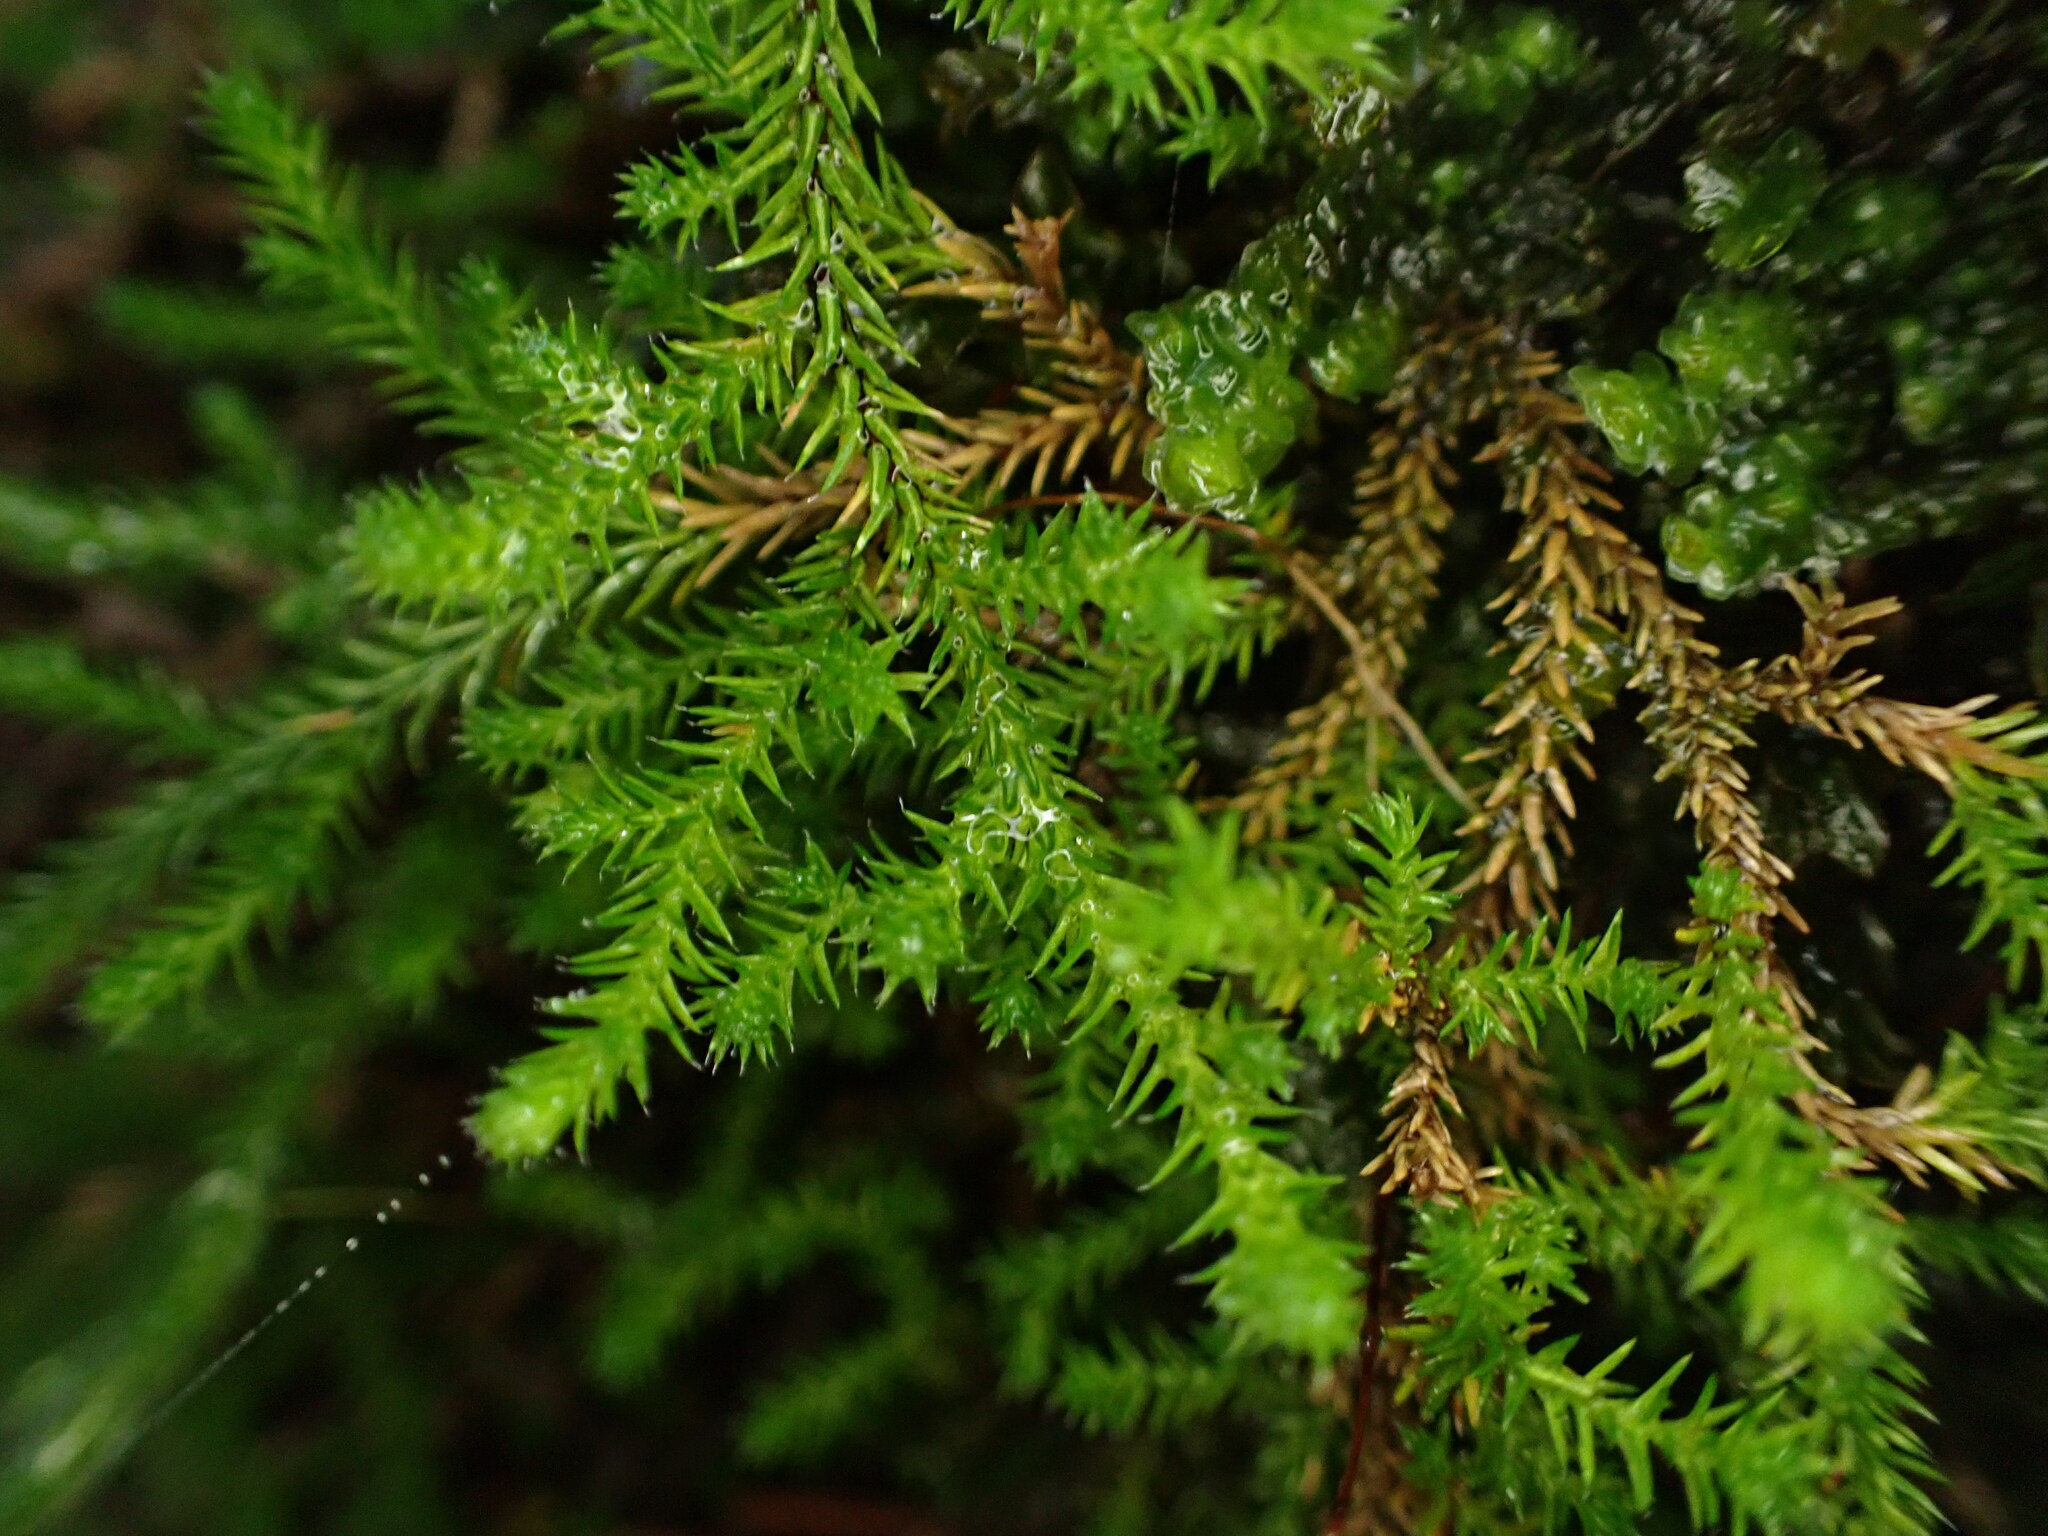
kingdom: Plantae
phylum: Tracheophyta
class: Lycopodiopsida
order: Selaginellales
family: Selaginellaceae
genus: Selaginella
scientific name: Selaginella wallacei
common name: Wallace's selaginella
